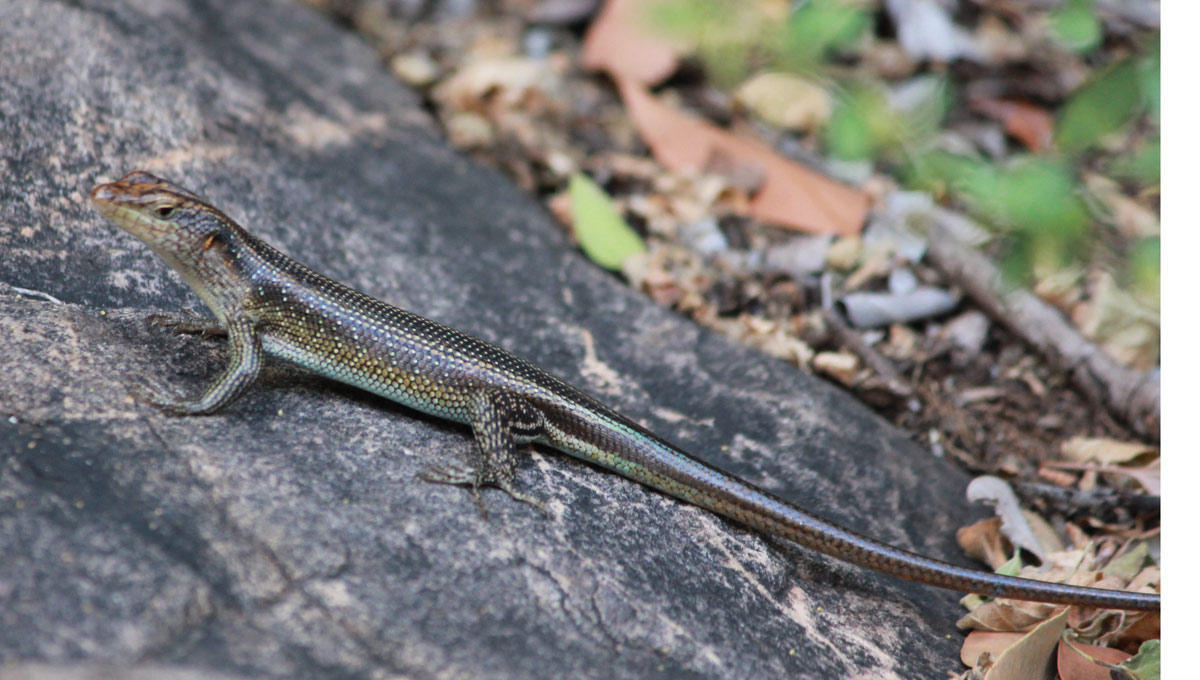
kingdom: Animalia
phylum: Chordata
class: Squamata
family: Scincidae
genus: Trachylepis
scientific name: Trachylepis margaritifera
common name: Rainbow skink
